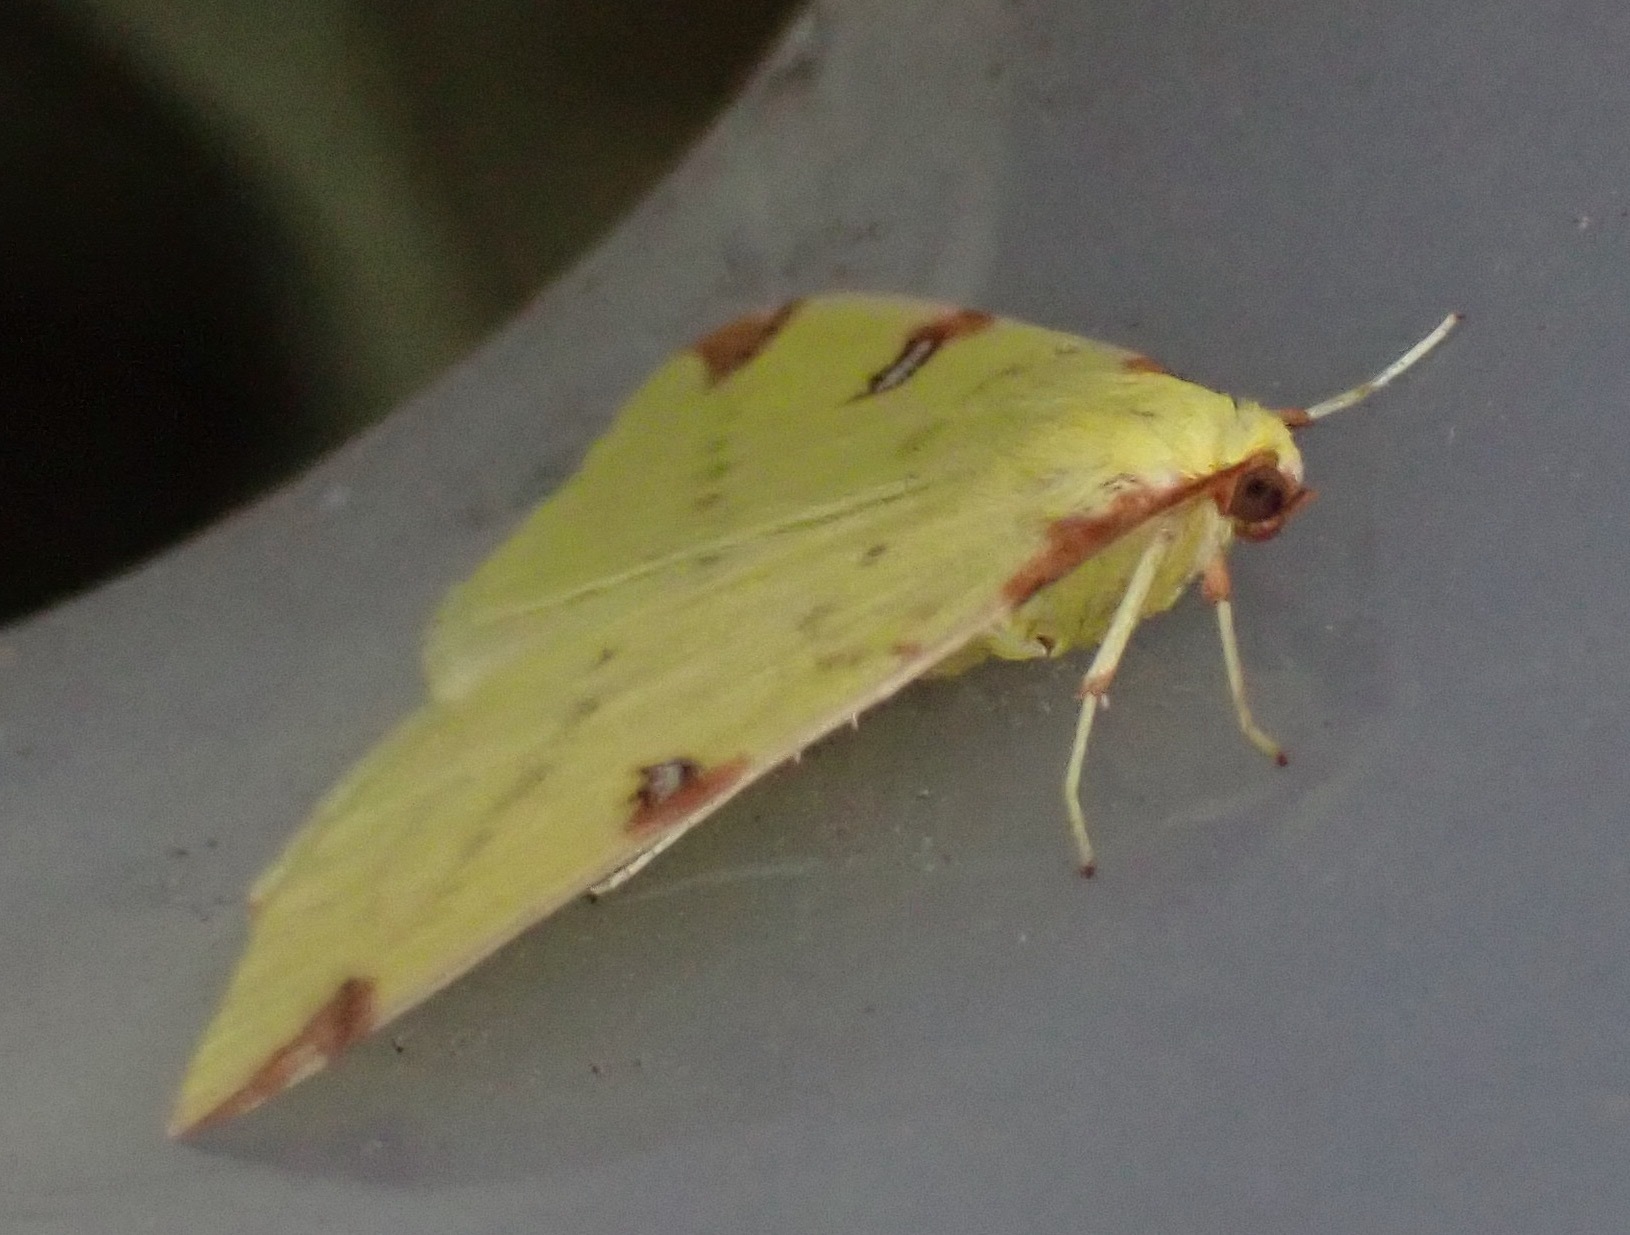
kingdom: Animalia
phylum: Arthropoda
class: Insecta
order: Lepidoptera
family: Geometridae
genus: Opisthograptis
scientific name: Opisthograptis luteolata
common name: Brimstone moth
